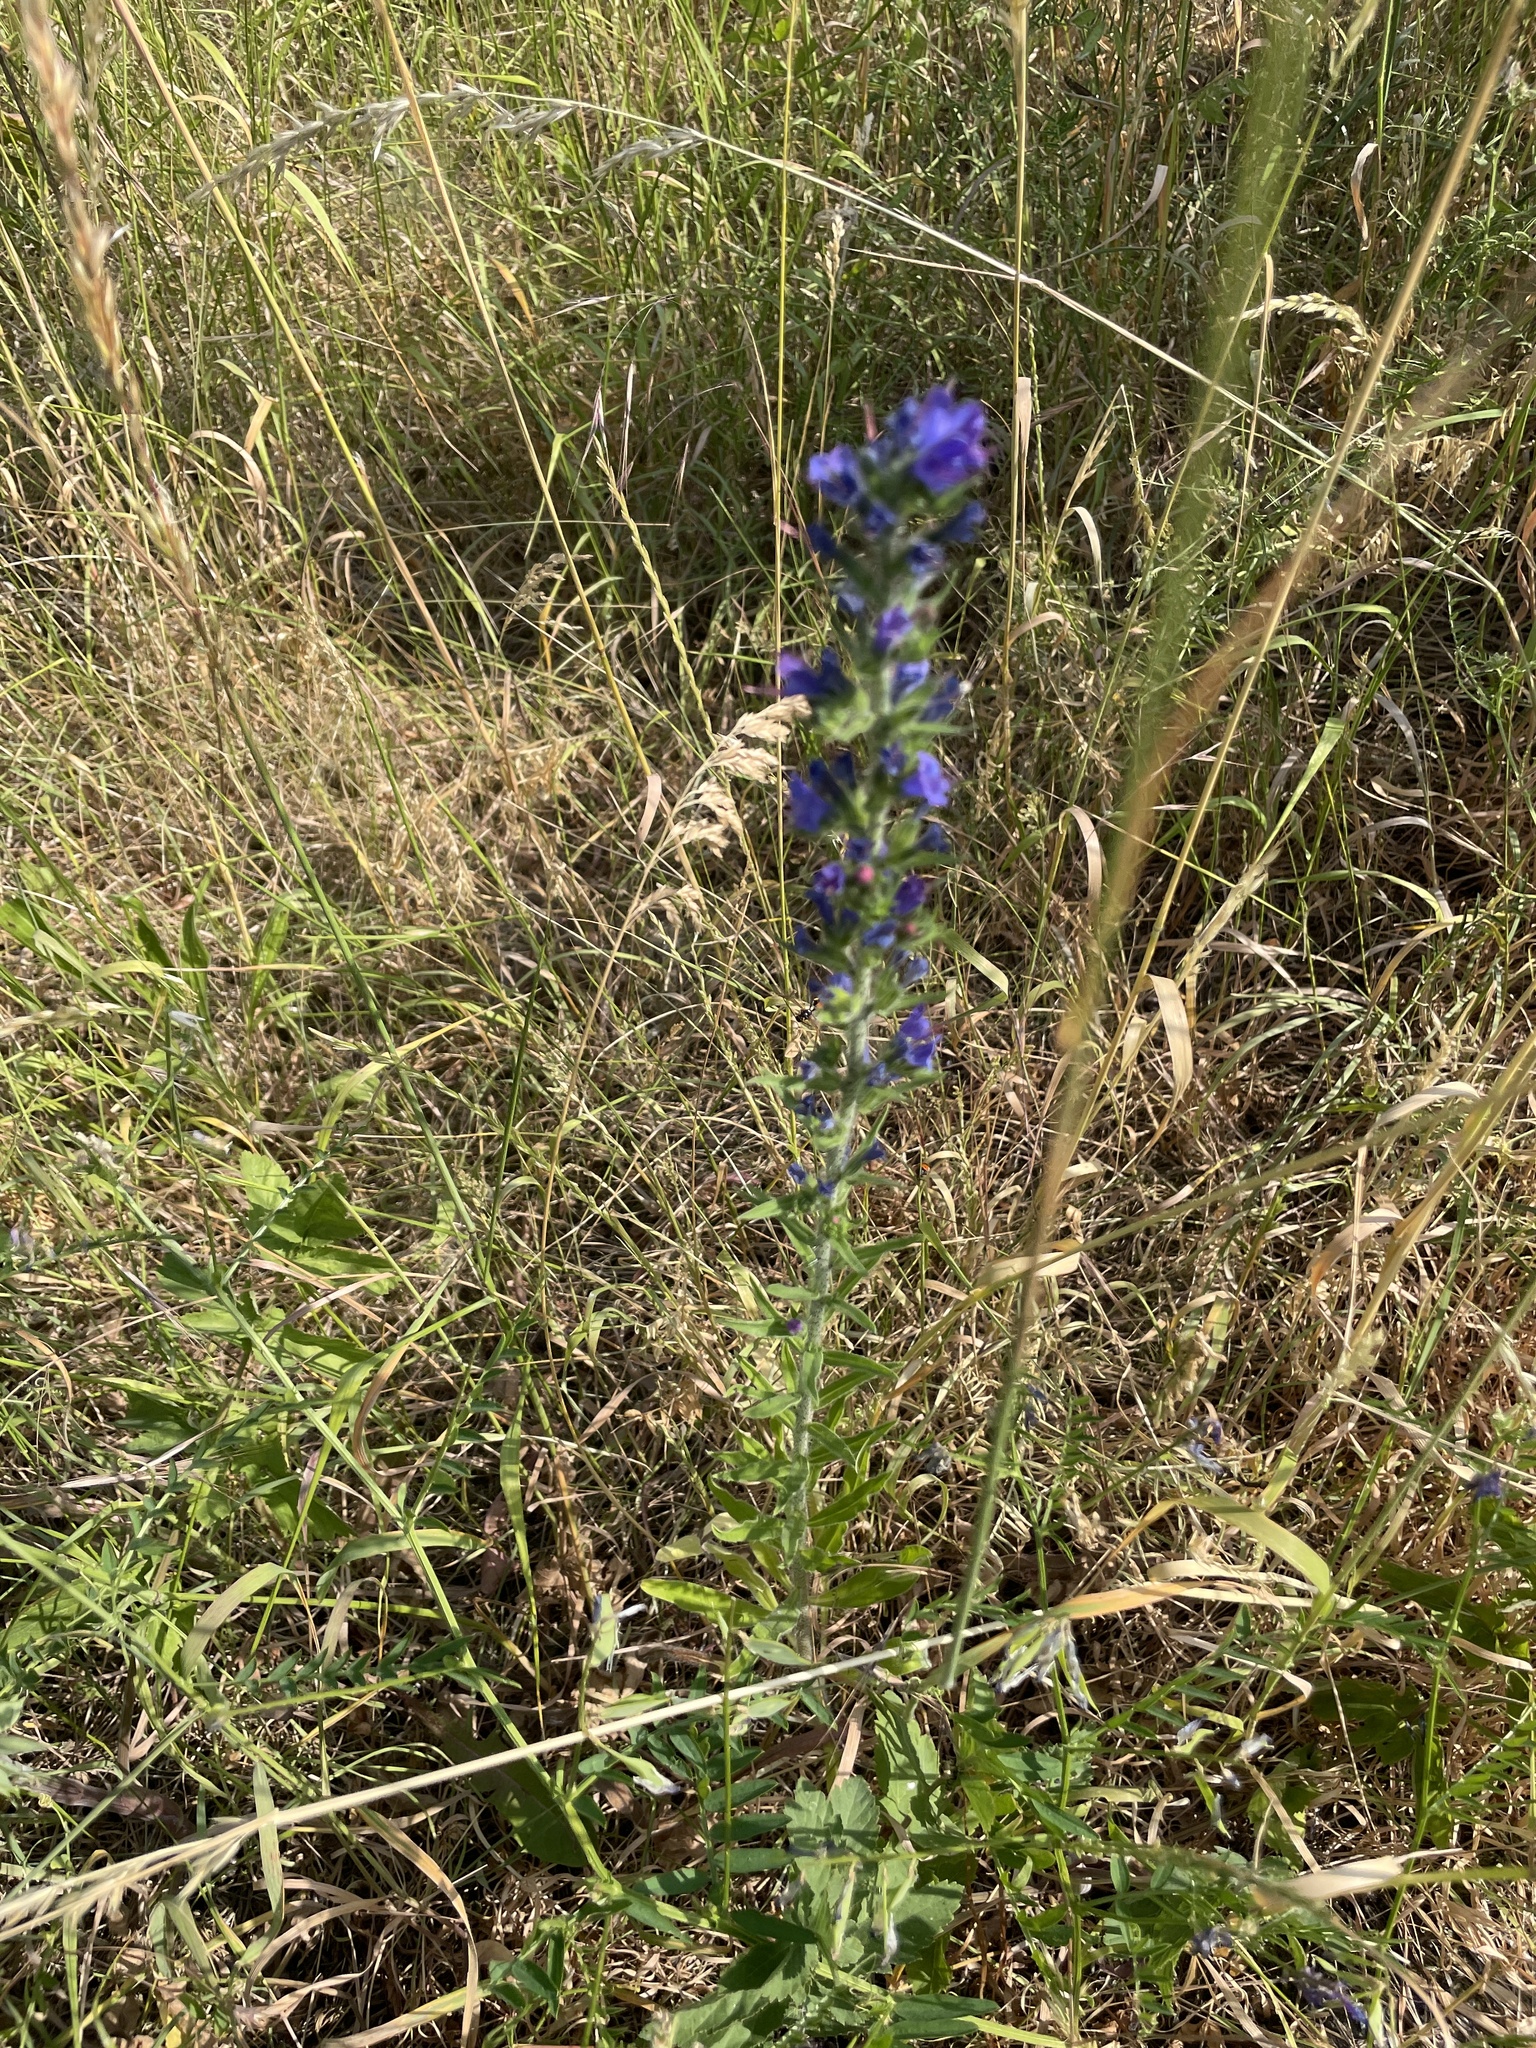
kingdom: Plantae
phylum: Tracheophyta
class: Magnoliopsida
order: Boraginales
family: Boraginaceae
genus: Echium
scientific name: Echium vulgare
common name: Common viper's bugloss
